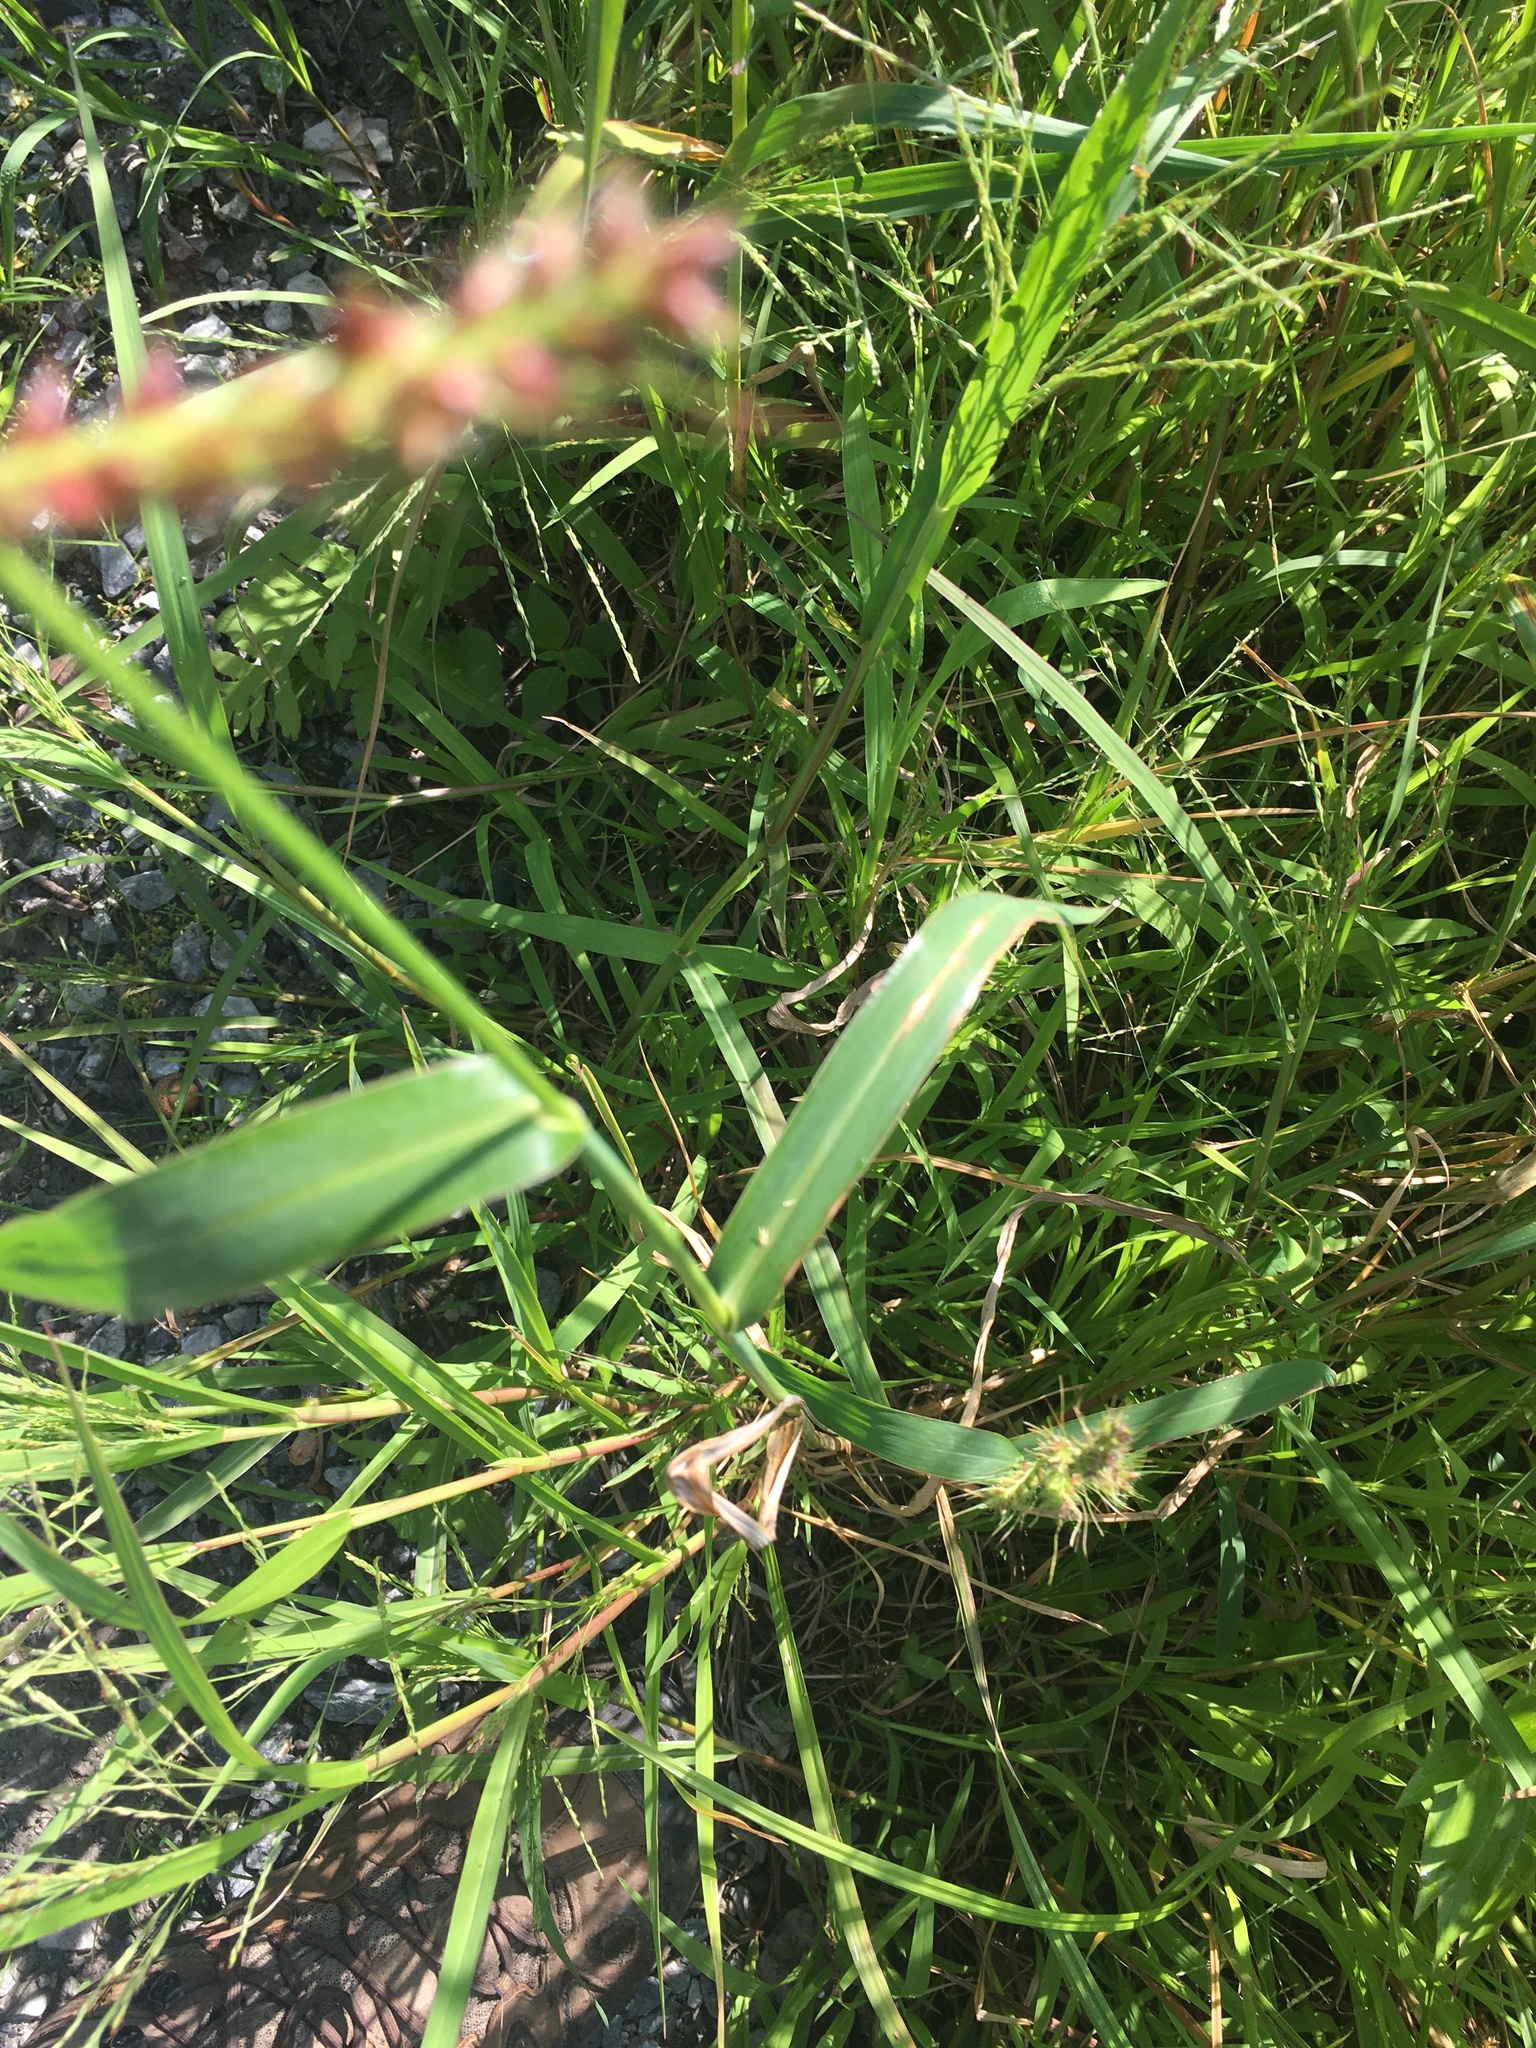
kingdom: Plantae
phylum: Tracheophyta
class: Liliopsida
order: Poales
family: Poaceae
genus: Echinochloa
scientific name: Echinochloa crus-galli
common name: Cockspur
